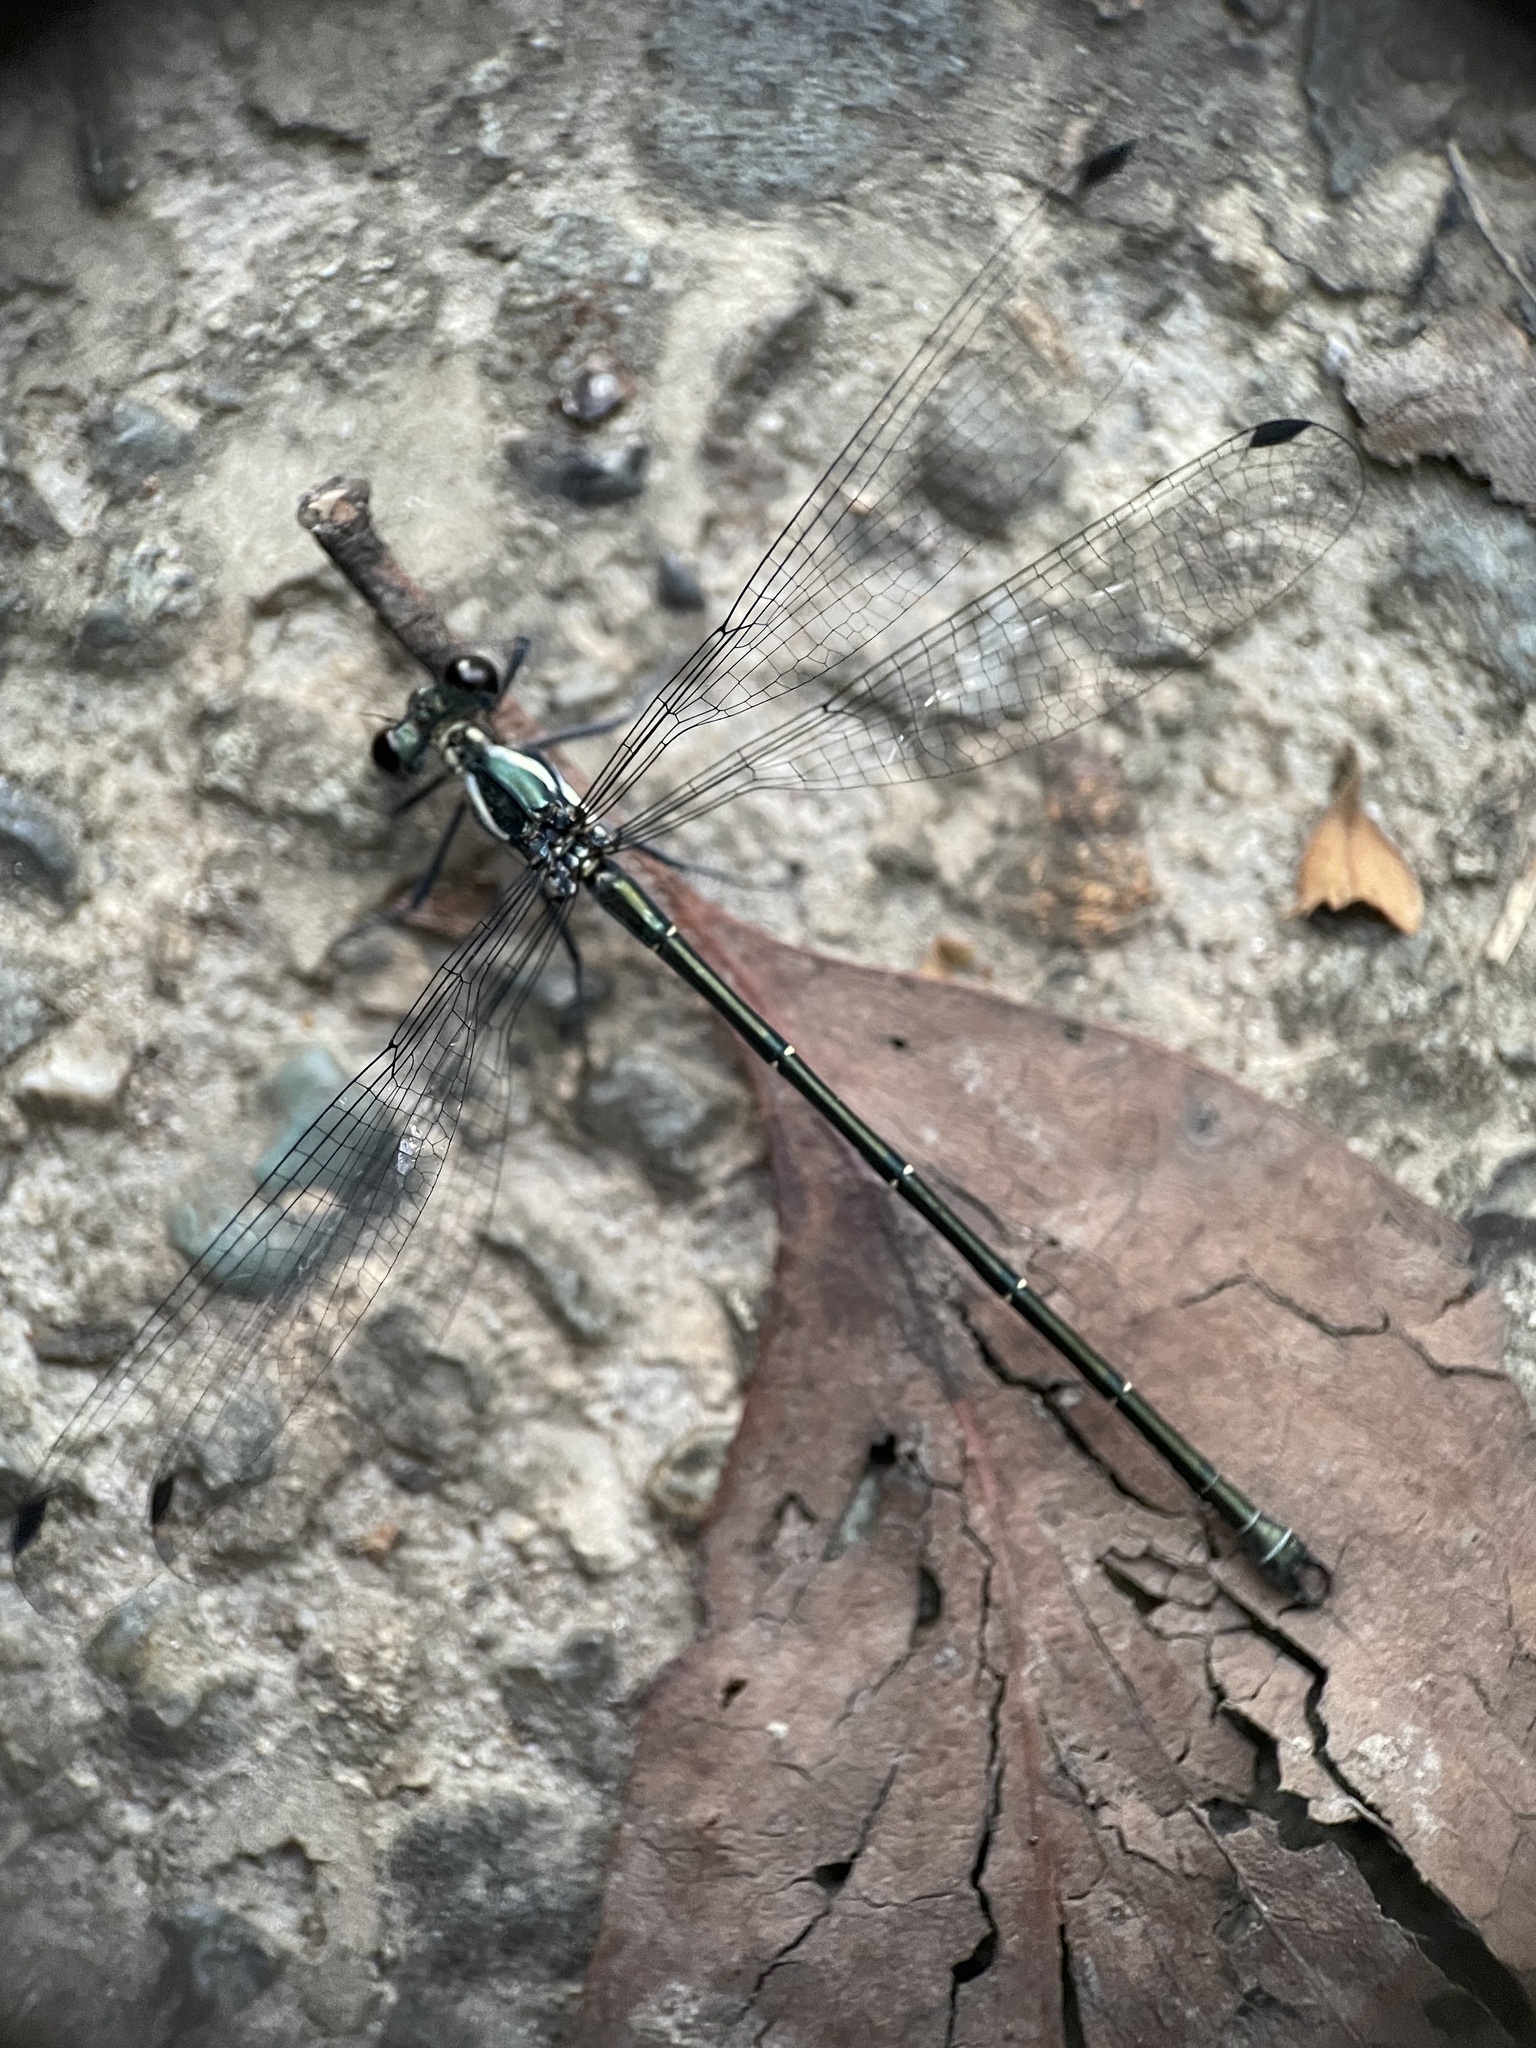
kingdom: Animalia
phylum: Arthropoda
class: Insecta
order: Odonata
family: Argiolestidae
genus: Austroargiolestes
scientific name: Austroargiolestes
